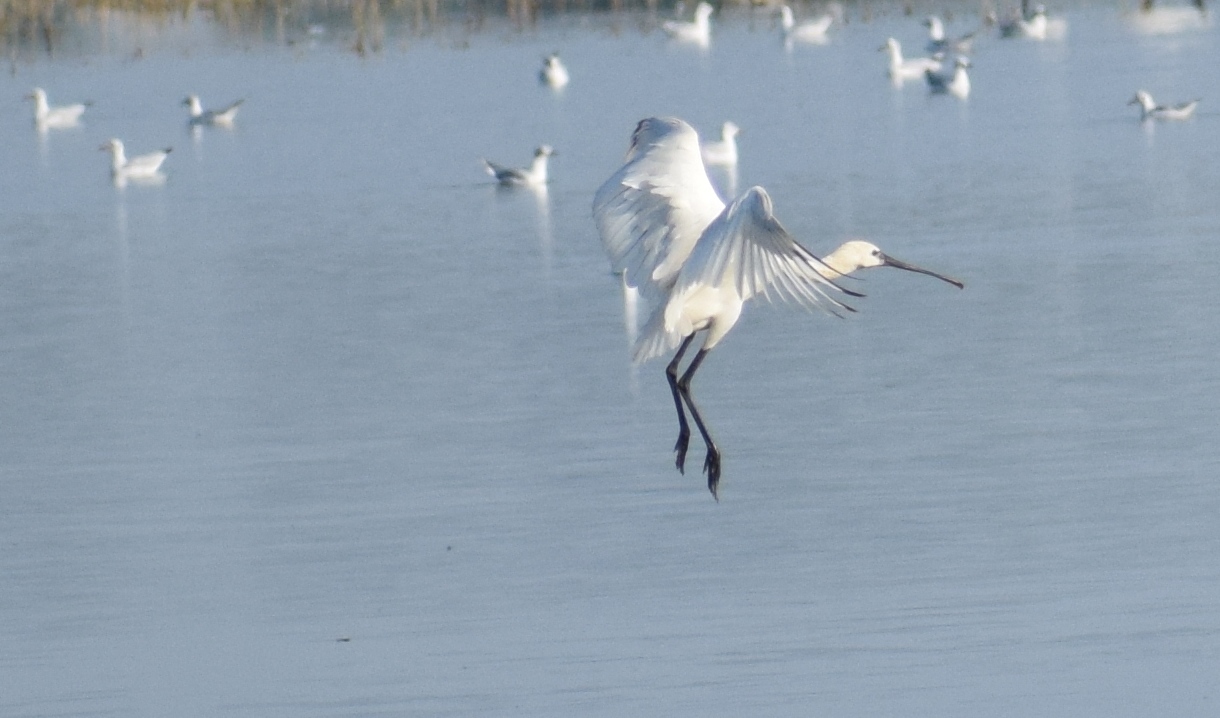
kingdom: Animalia
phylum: Chordata
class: Aves
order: Pelecaniformes
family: Threskiornithidae
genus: Platalea
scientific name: Platalea leucorodia
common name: Eurasian spoonbill
